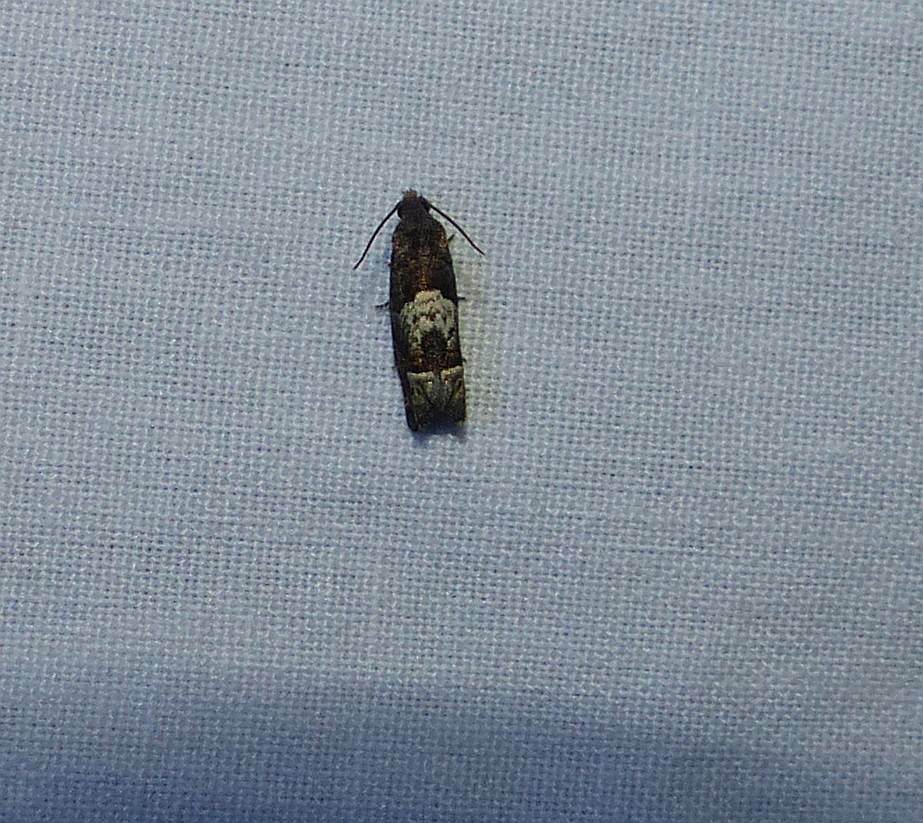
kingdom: Animalia
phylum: Arthropoda
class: Insecta
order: Lepidoptera
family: Tortricidae
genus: Eucosma
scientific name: Eucosma parmatana
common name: Aster eucosma moth
